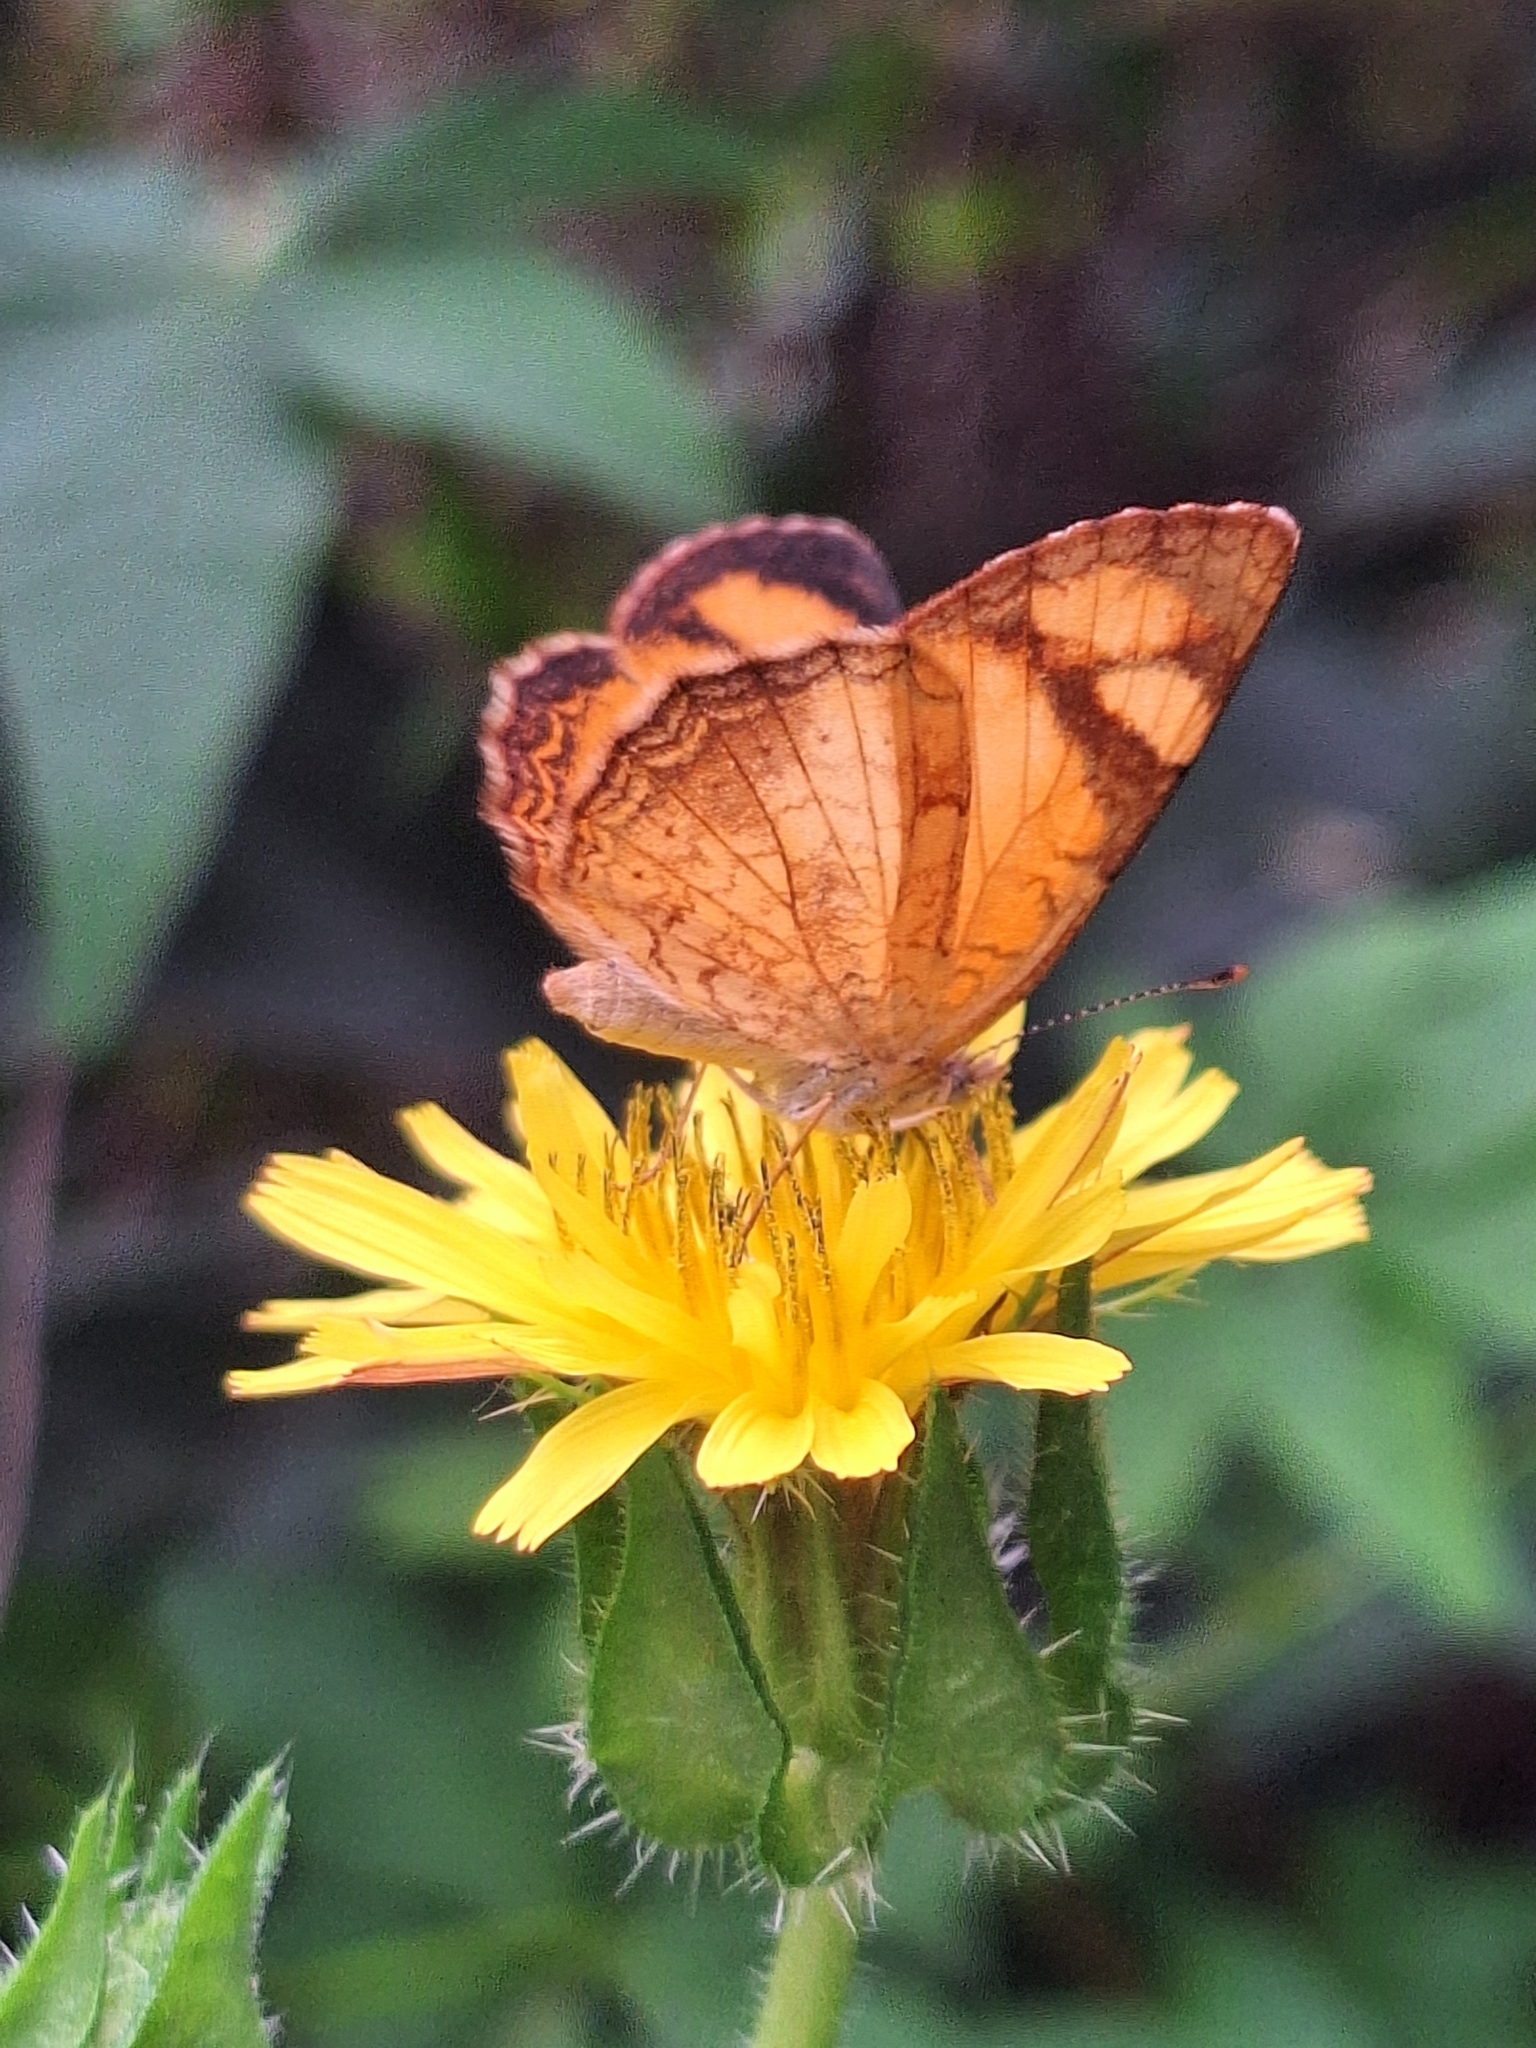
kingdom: Animalia
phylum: Arthropoda
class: Insecta
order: Lepidoptera
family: Nymphalidae
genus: Tegosa
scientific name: Tegosa claudina
